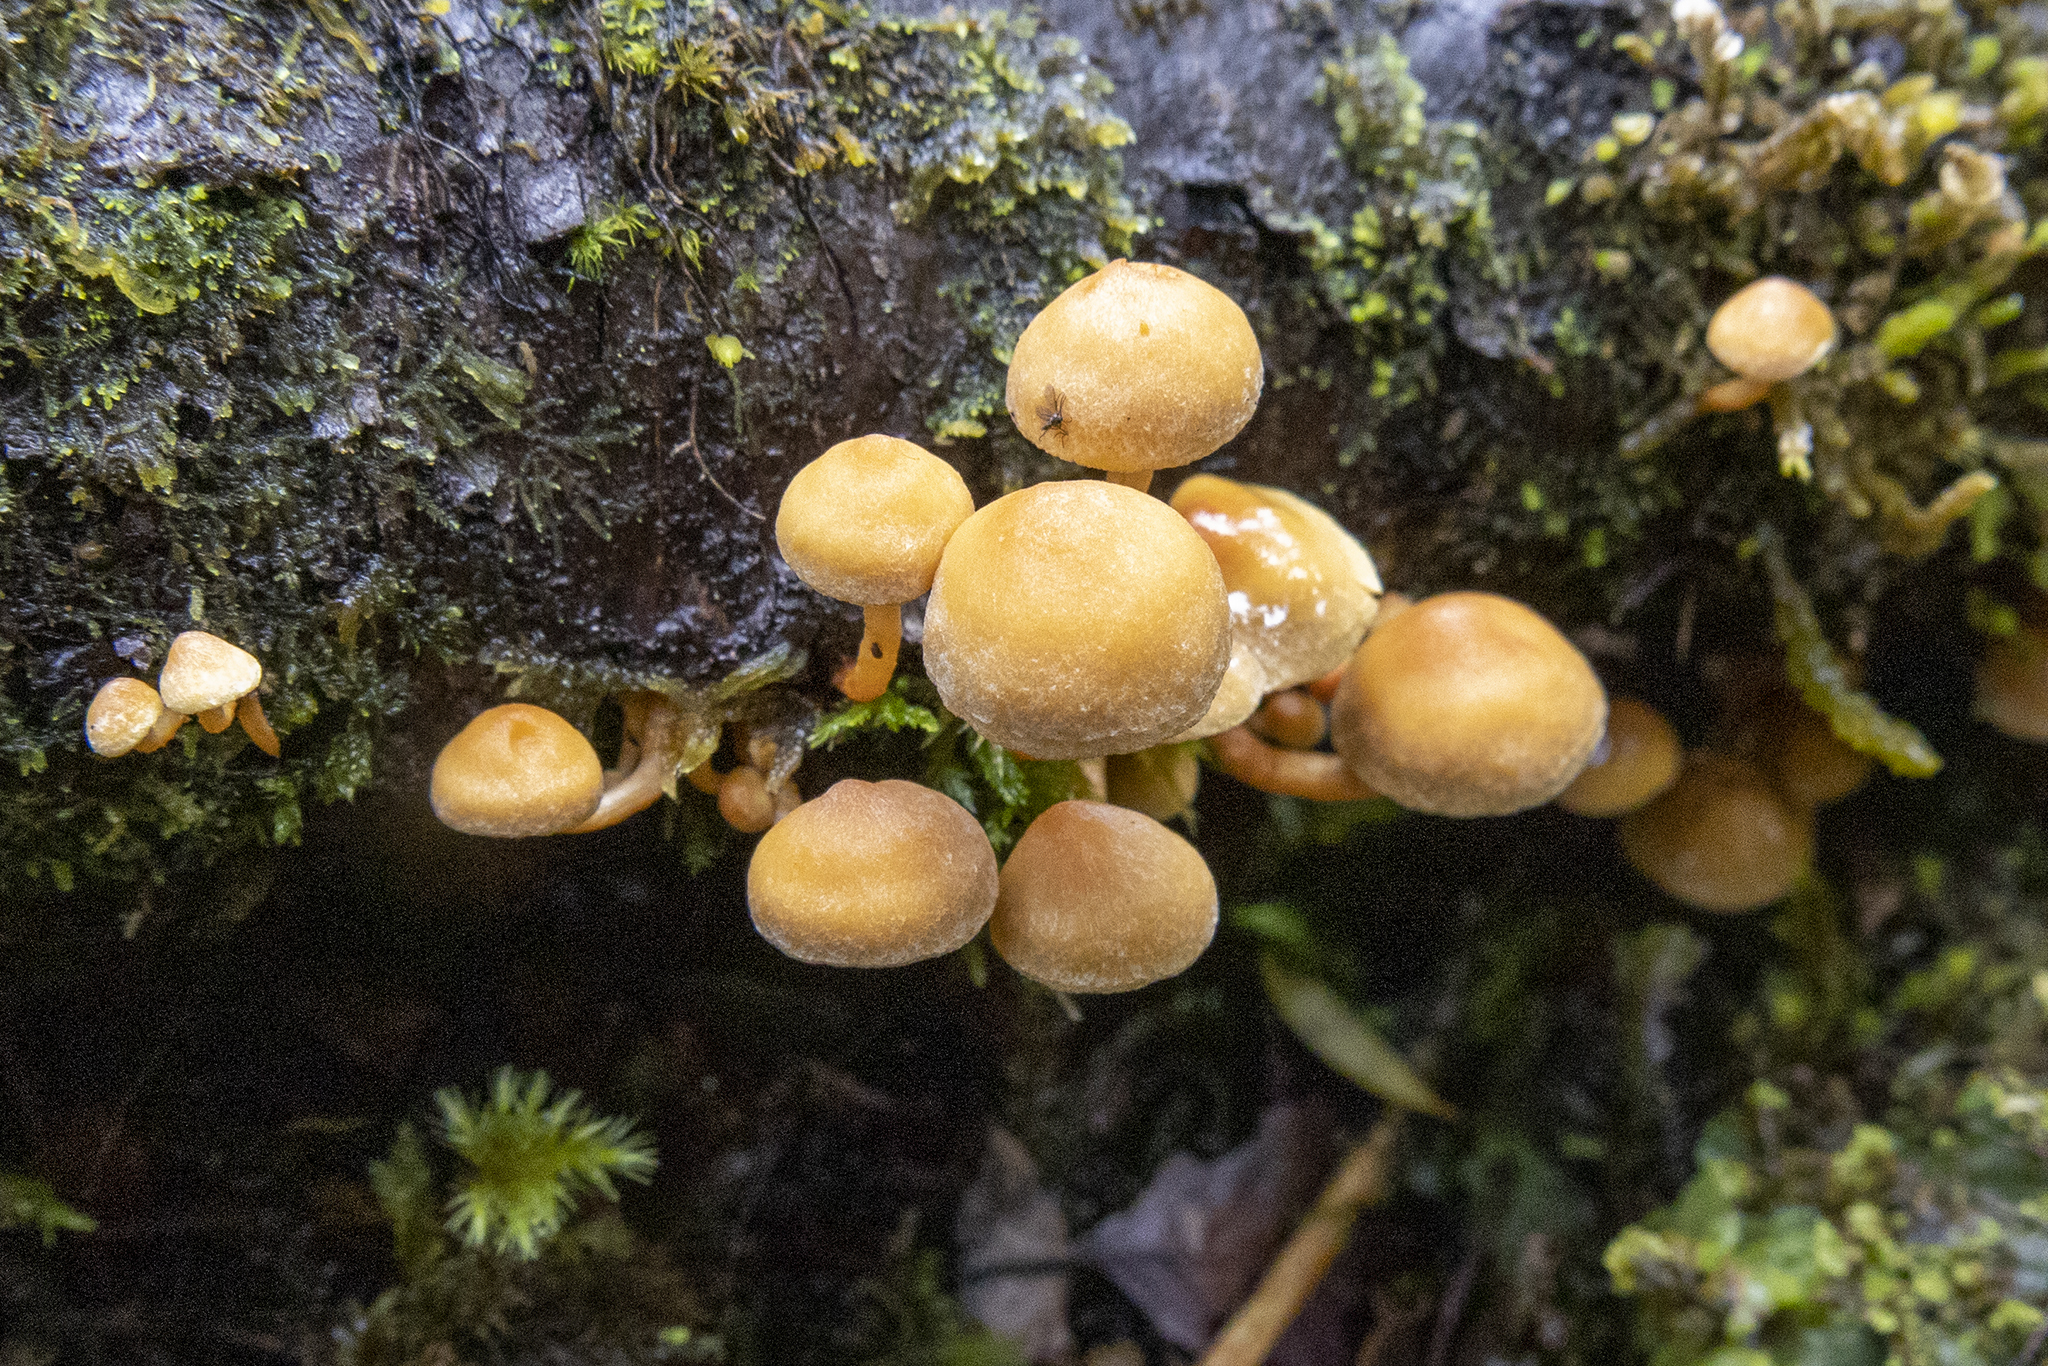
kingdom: Fungi
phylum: Basidiomycota
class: Agaricomycetes
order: Agaricales
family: Strophariaceae
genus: Hypholoma
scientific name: Hypholoma acutum
